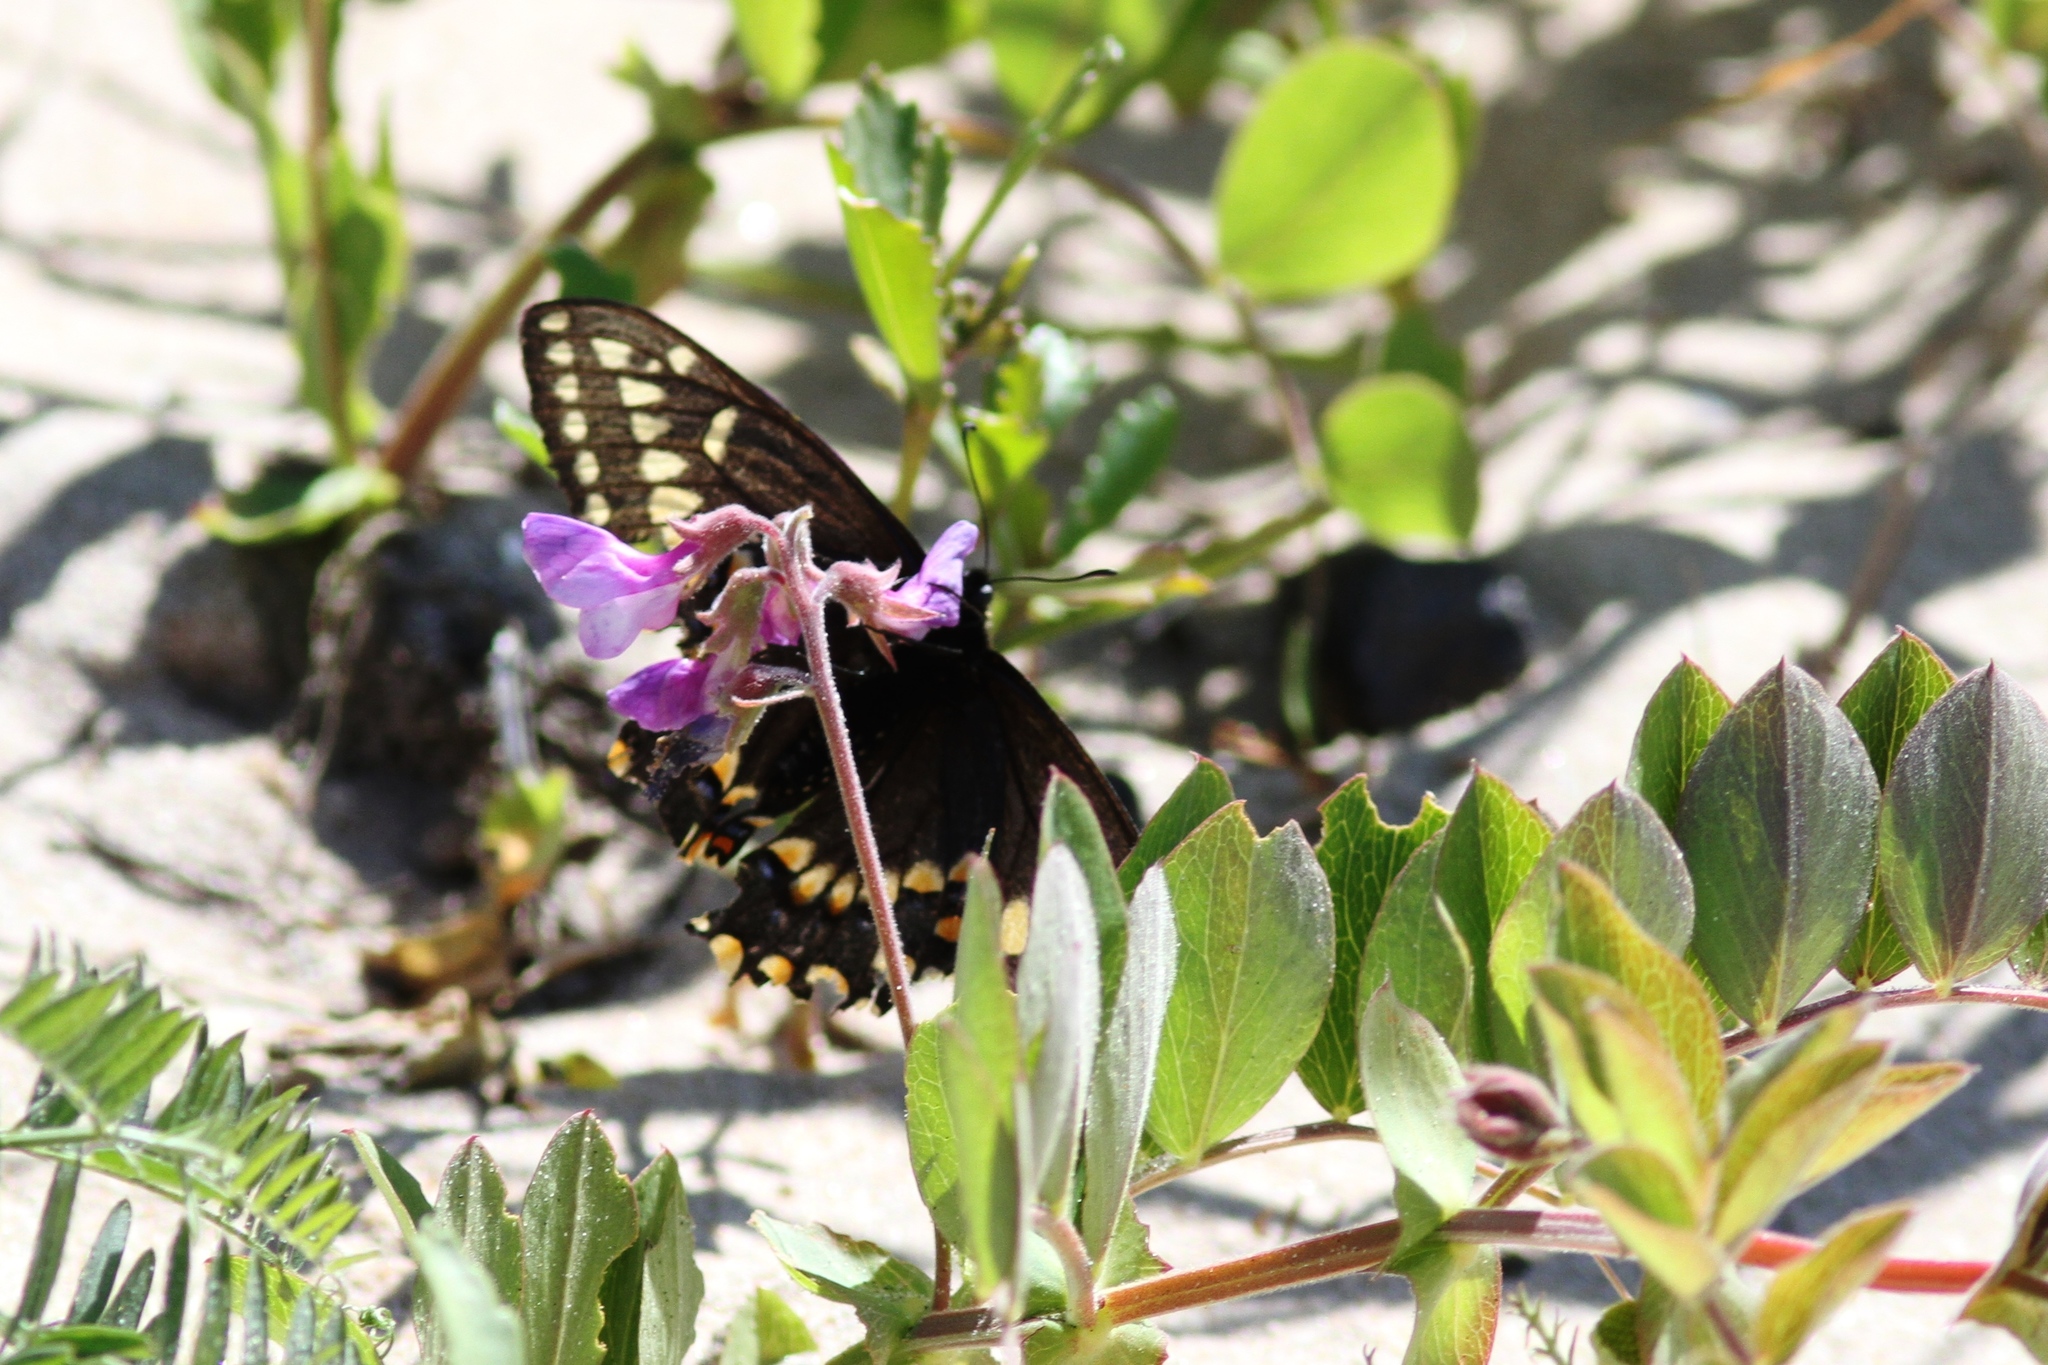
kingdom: Animalia
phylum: Arthropoda
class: Insecta
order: Lepidoptera
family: Papilionidae
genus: Papilio
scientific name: Papilio brevicauda
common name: Short tailed swallowtail
